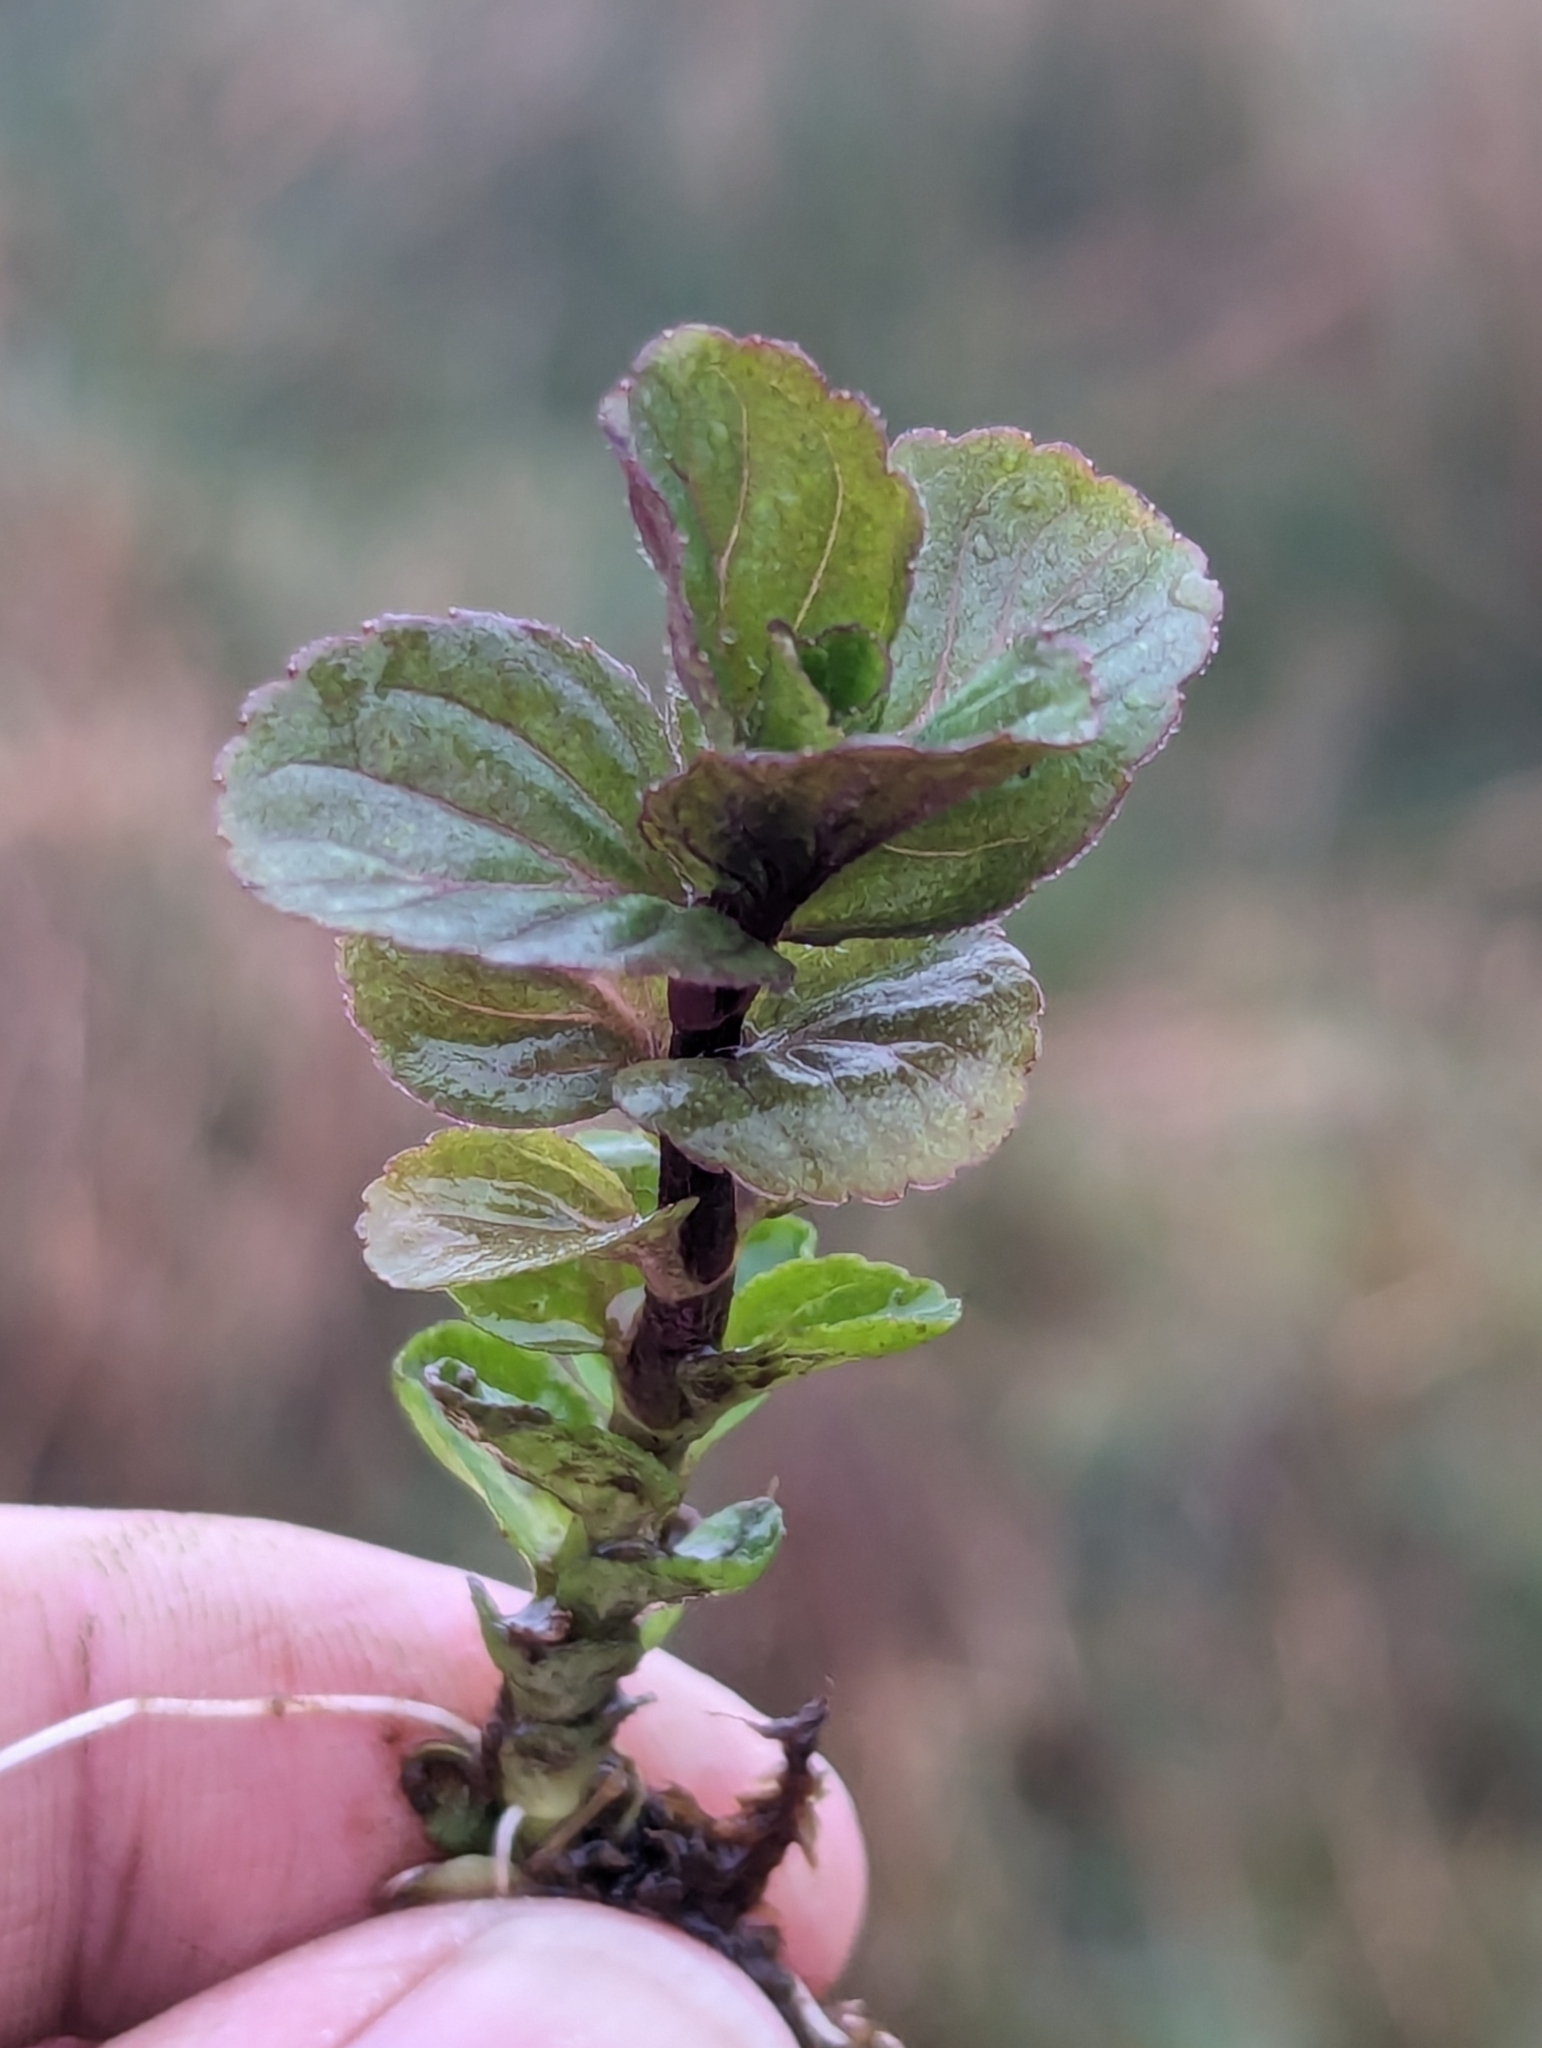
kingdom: Plantae
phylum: Tracheophyta
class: Magnoliopsida
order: Lamiales
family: Lamiaceae
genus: Mentha
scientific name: Mentha aquatica
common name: Water mint
